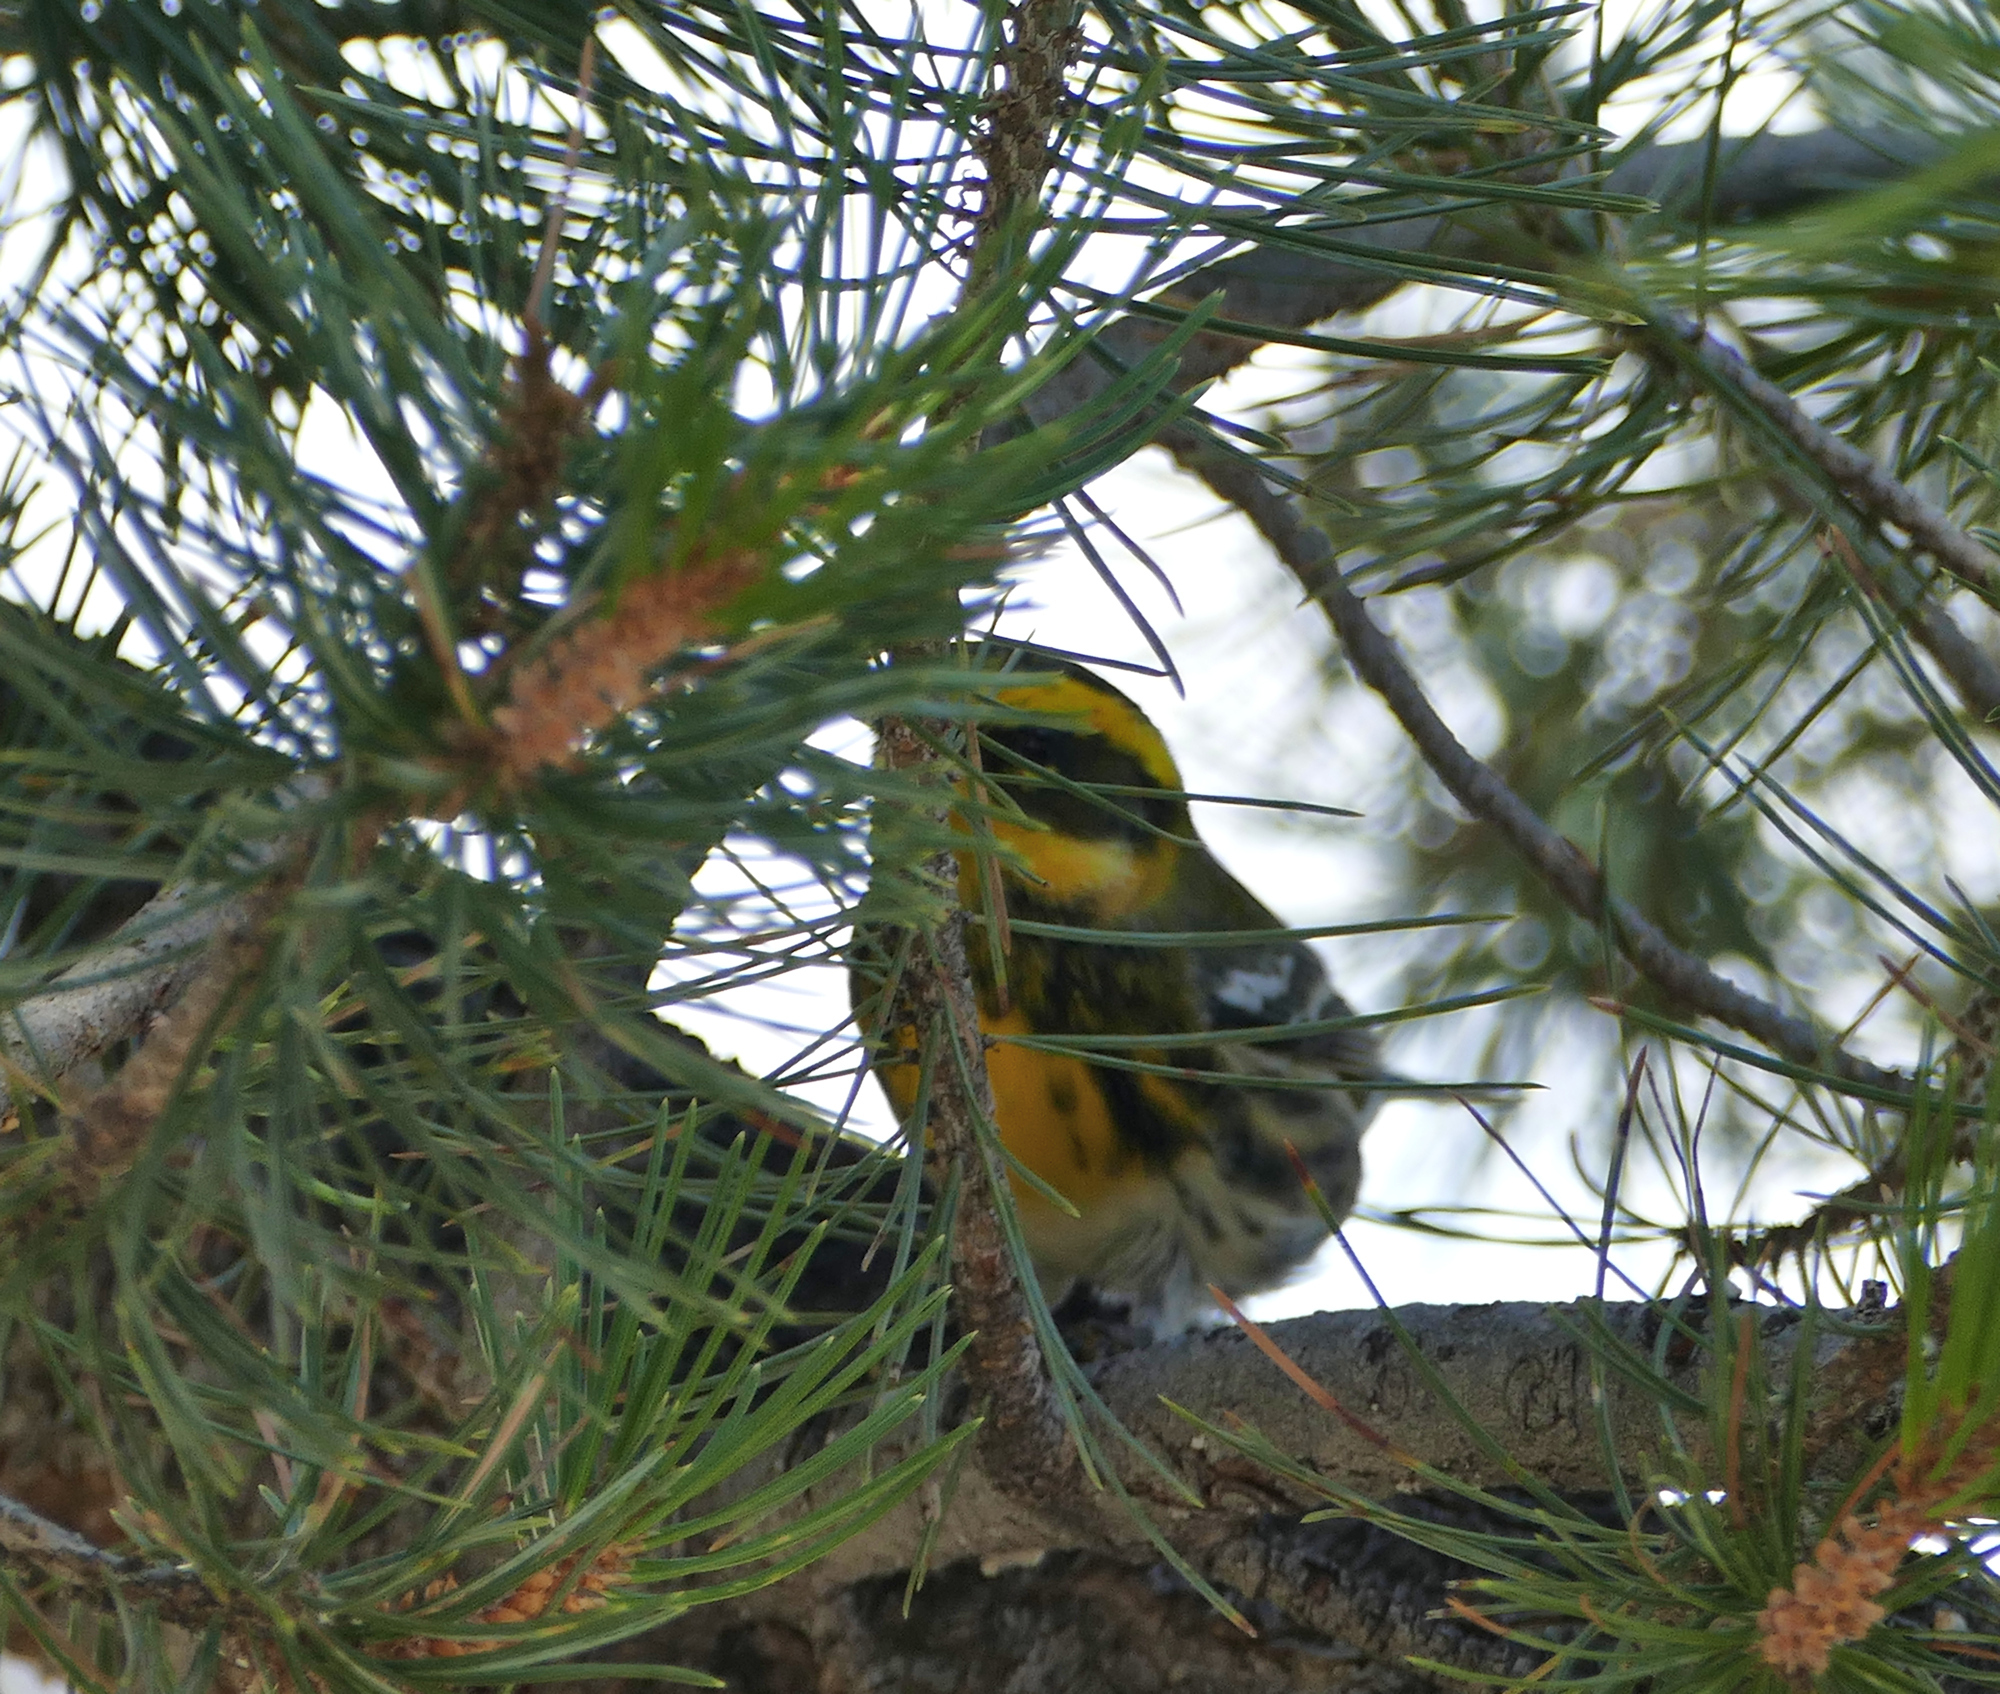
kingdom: Animalia
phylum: Chordata
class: Aves
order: Passeriformes
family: Parulidae
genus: Setophaga
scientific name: Setophaga townsendi
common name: Townsend's warbler
